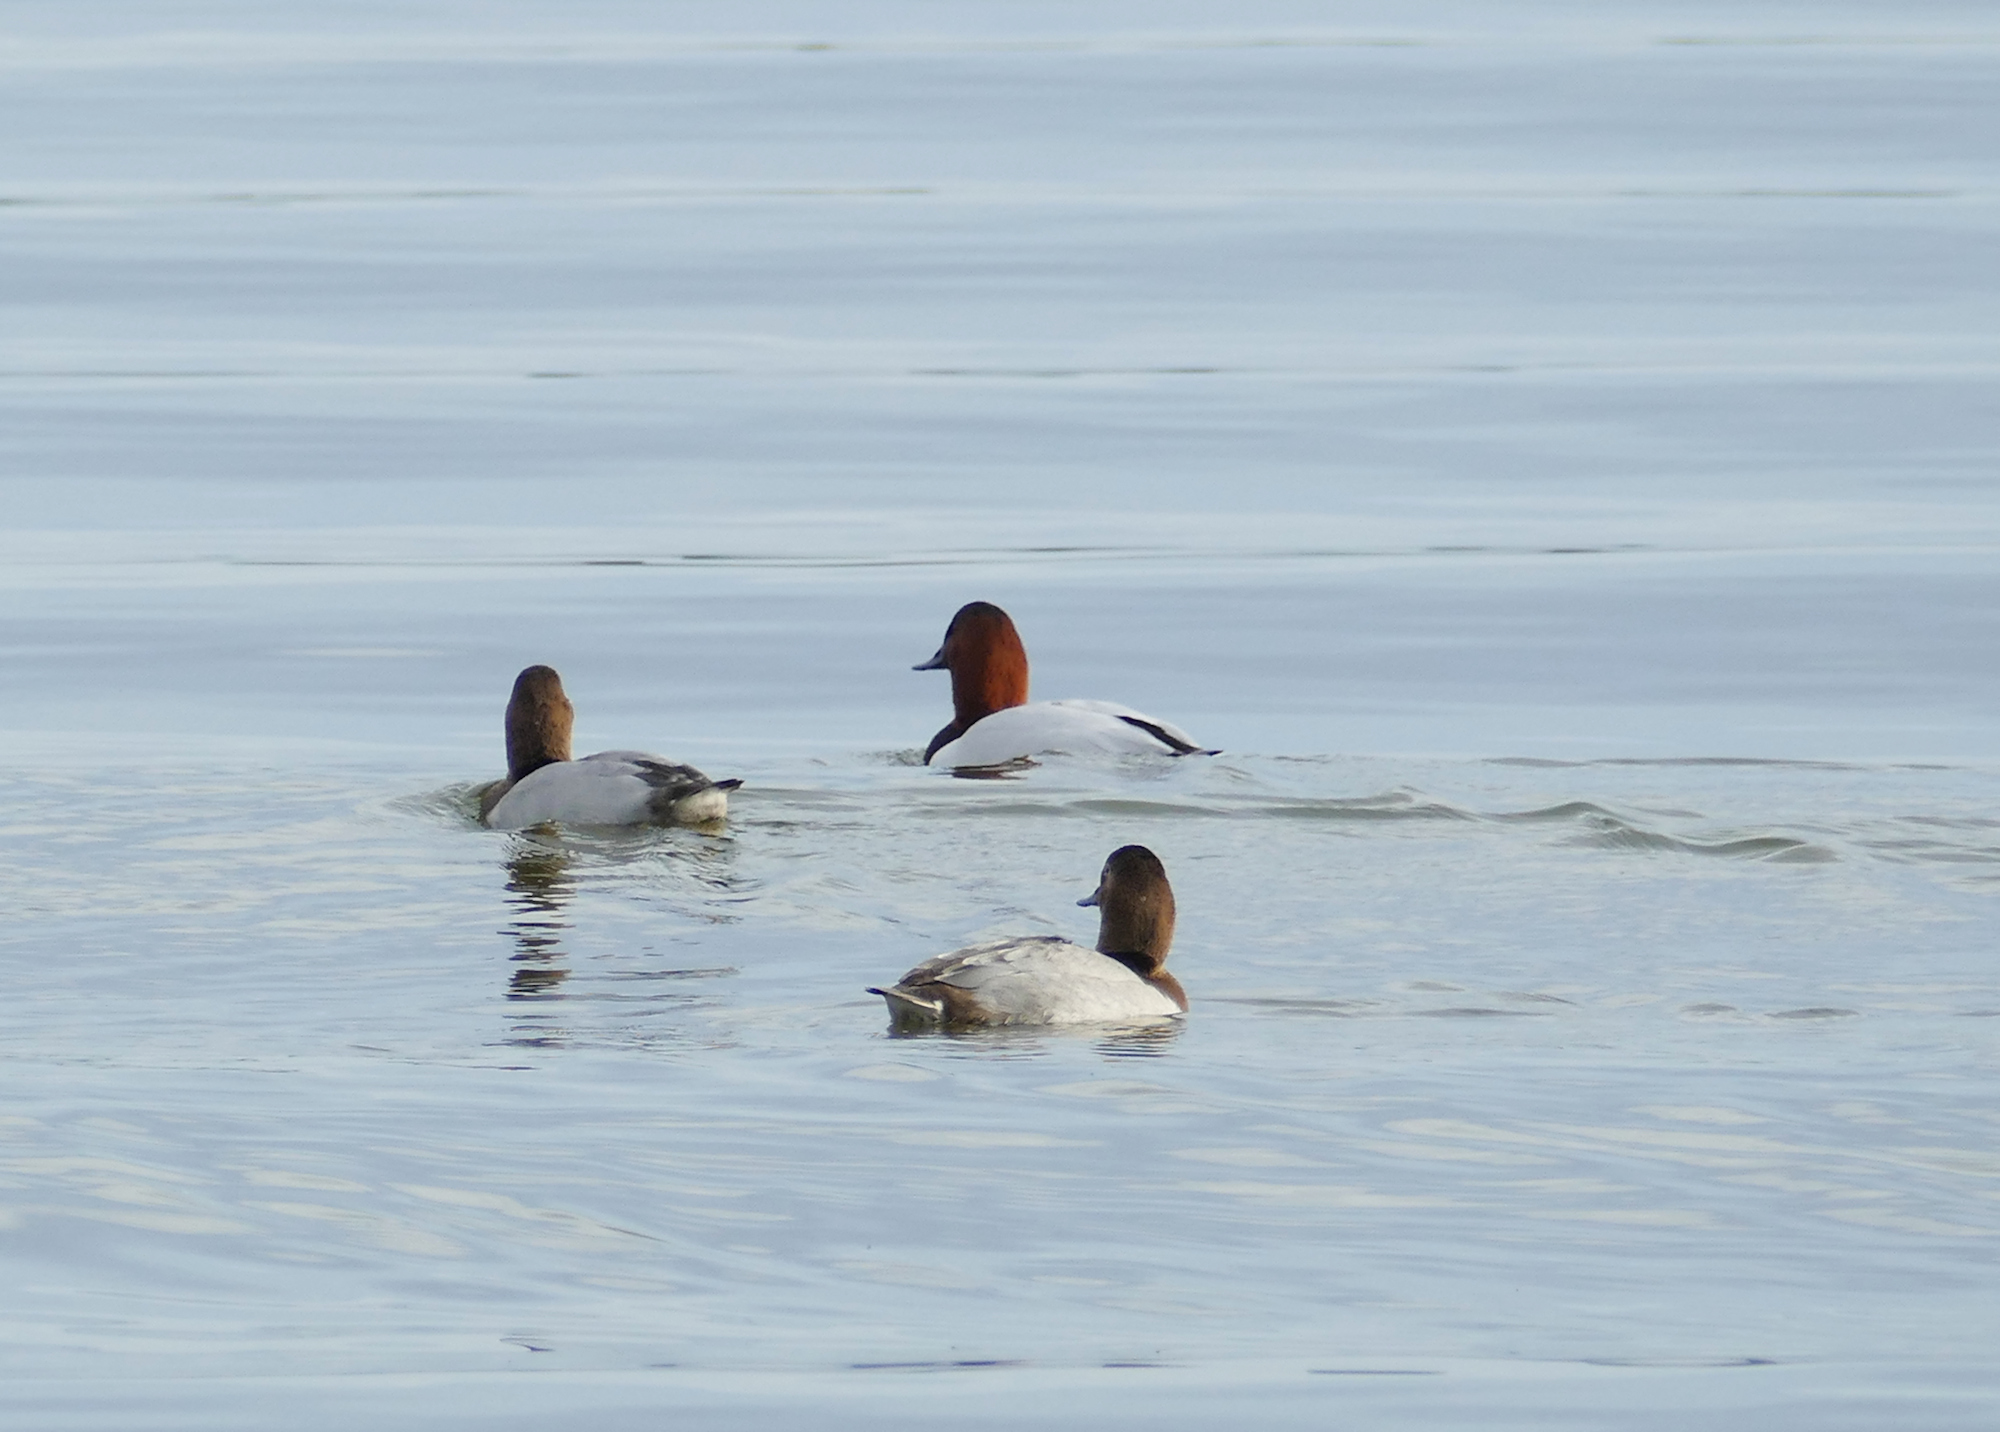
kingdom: Animalia
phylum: Chordata
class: Aves
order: Anseriformes
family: Anatidae
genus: Aythya
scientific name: Aythya valisineria
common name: Canvasback
